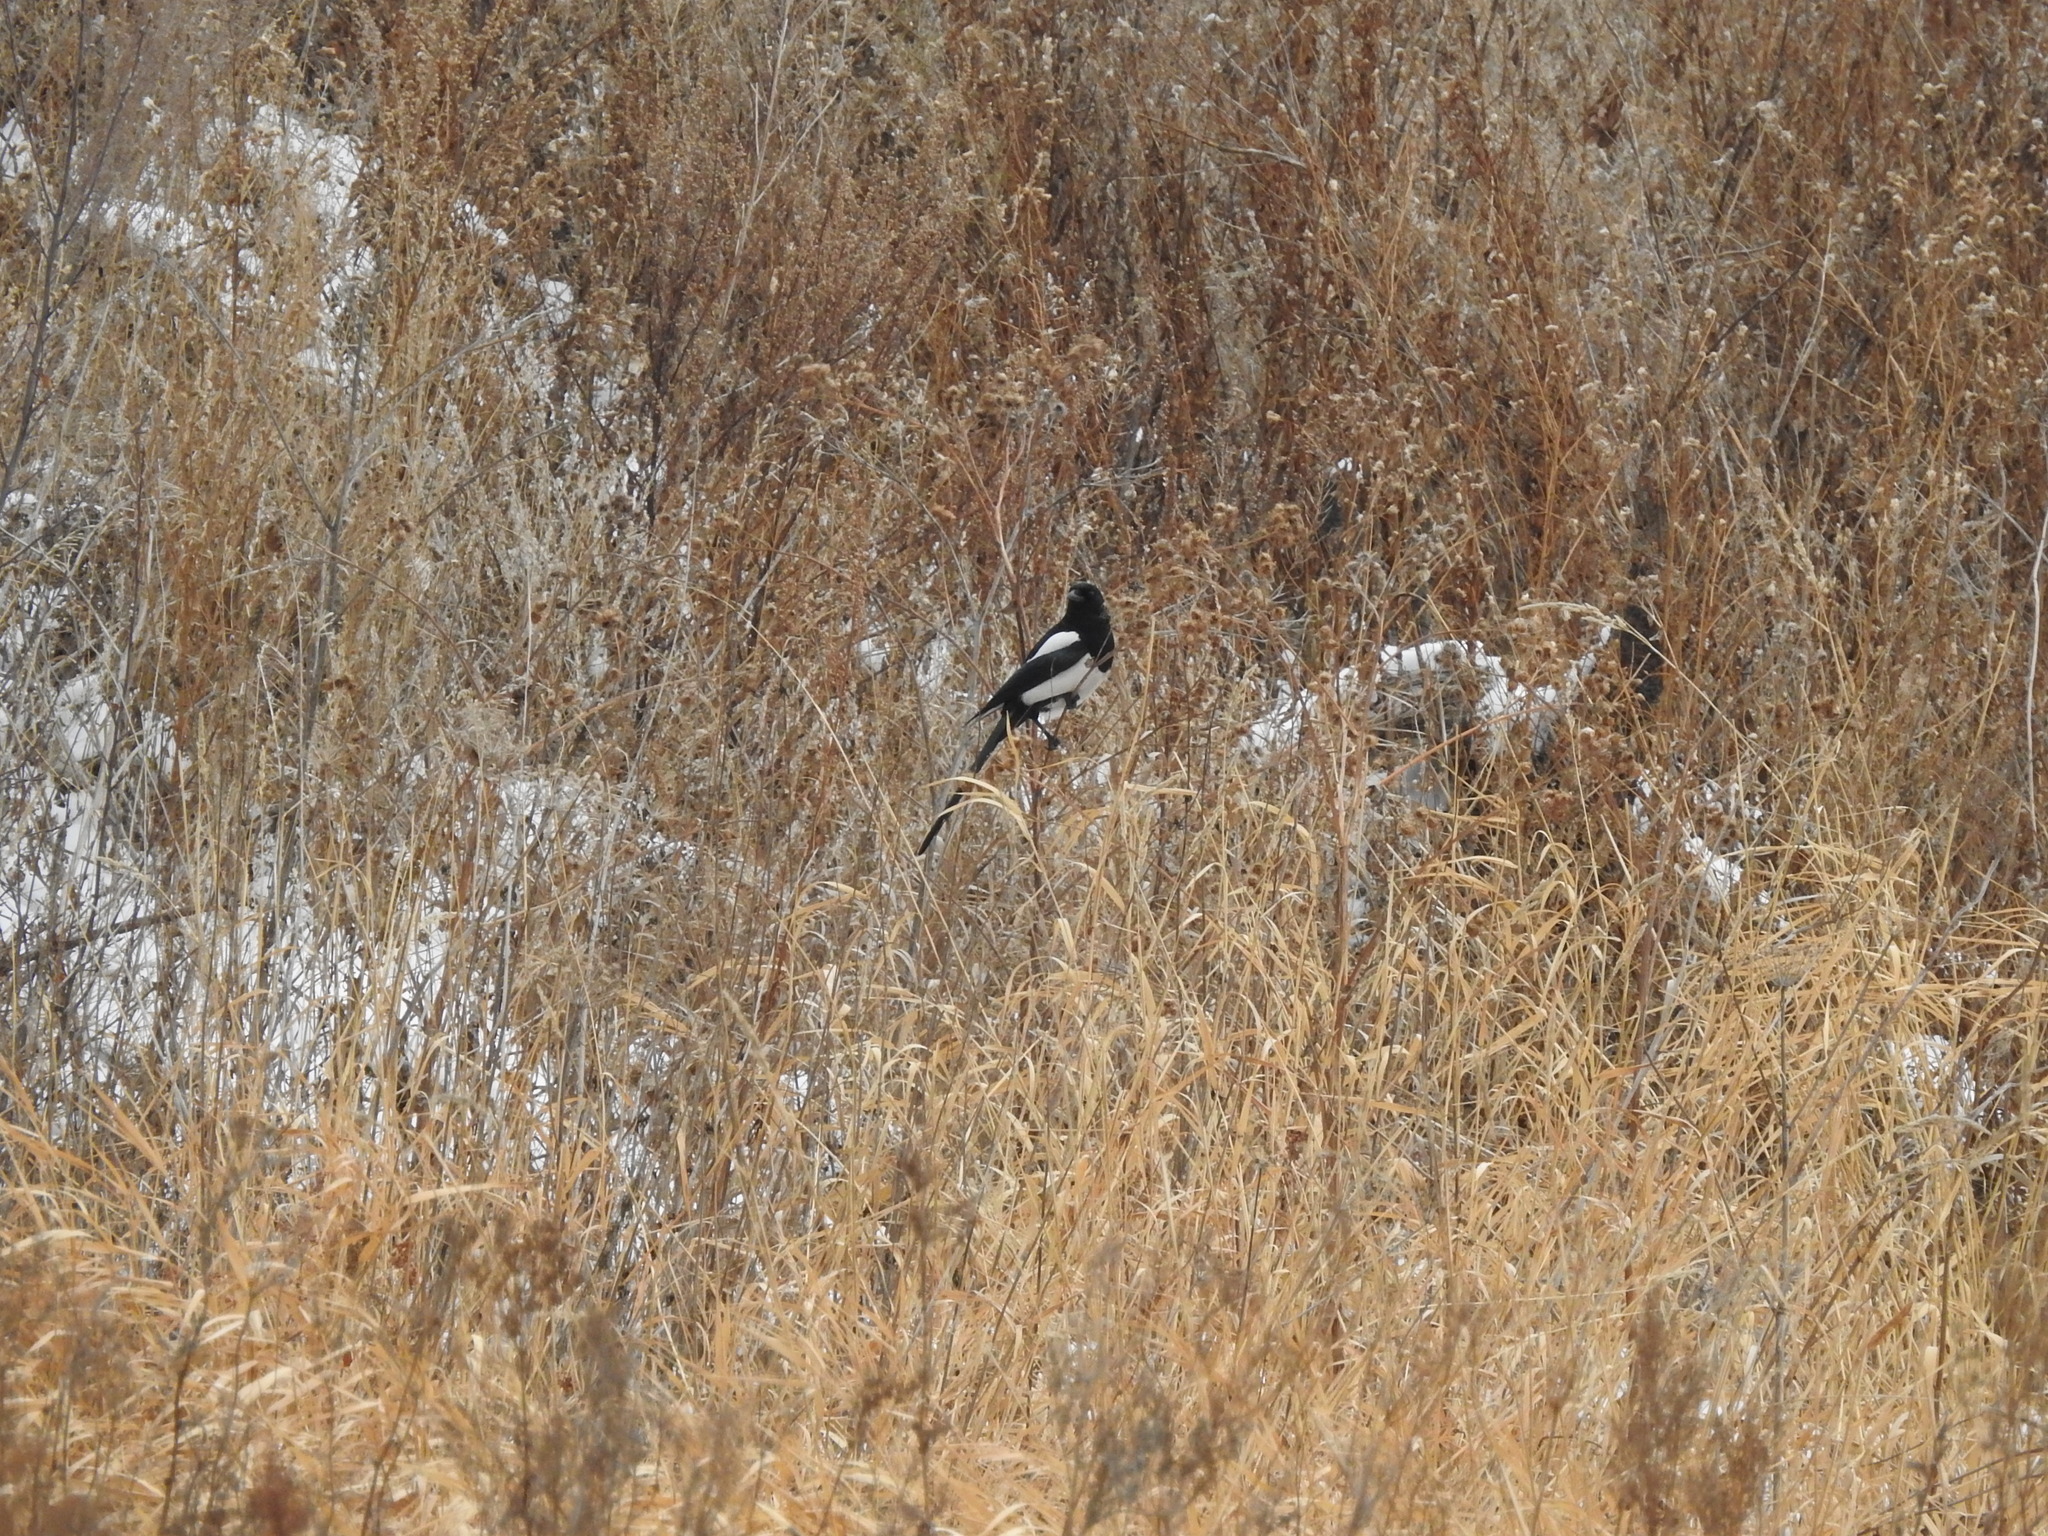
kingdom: Animalia
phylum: Chordata
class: Aves
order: Passeriformes
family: Corvidae
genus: Pica
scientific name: Pica pica
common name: Eurasian magpie
